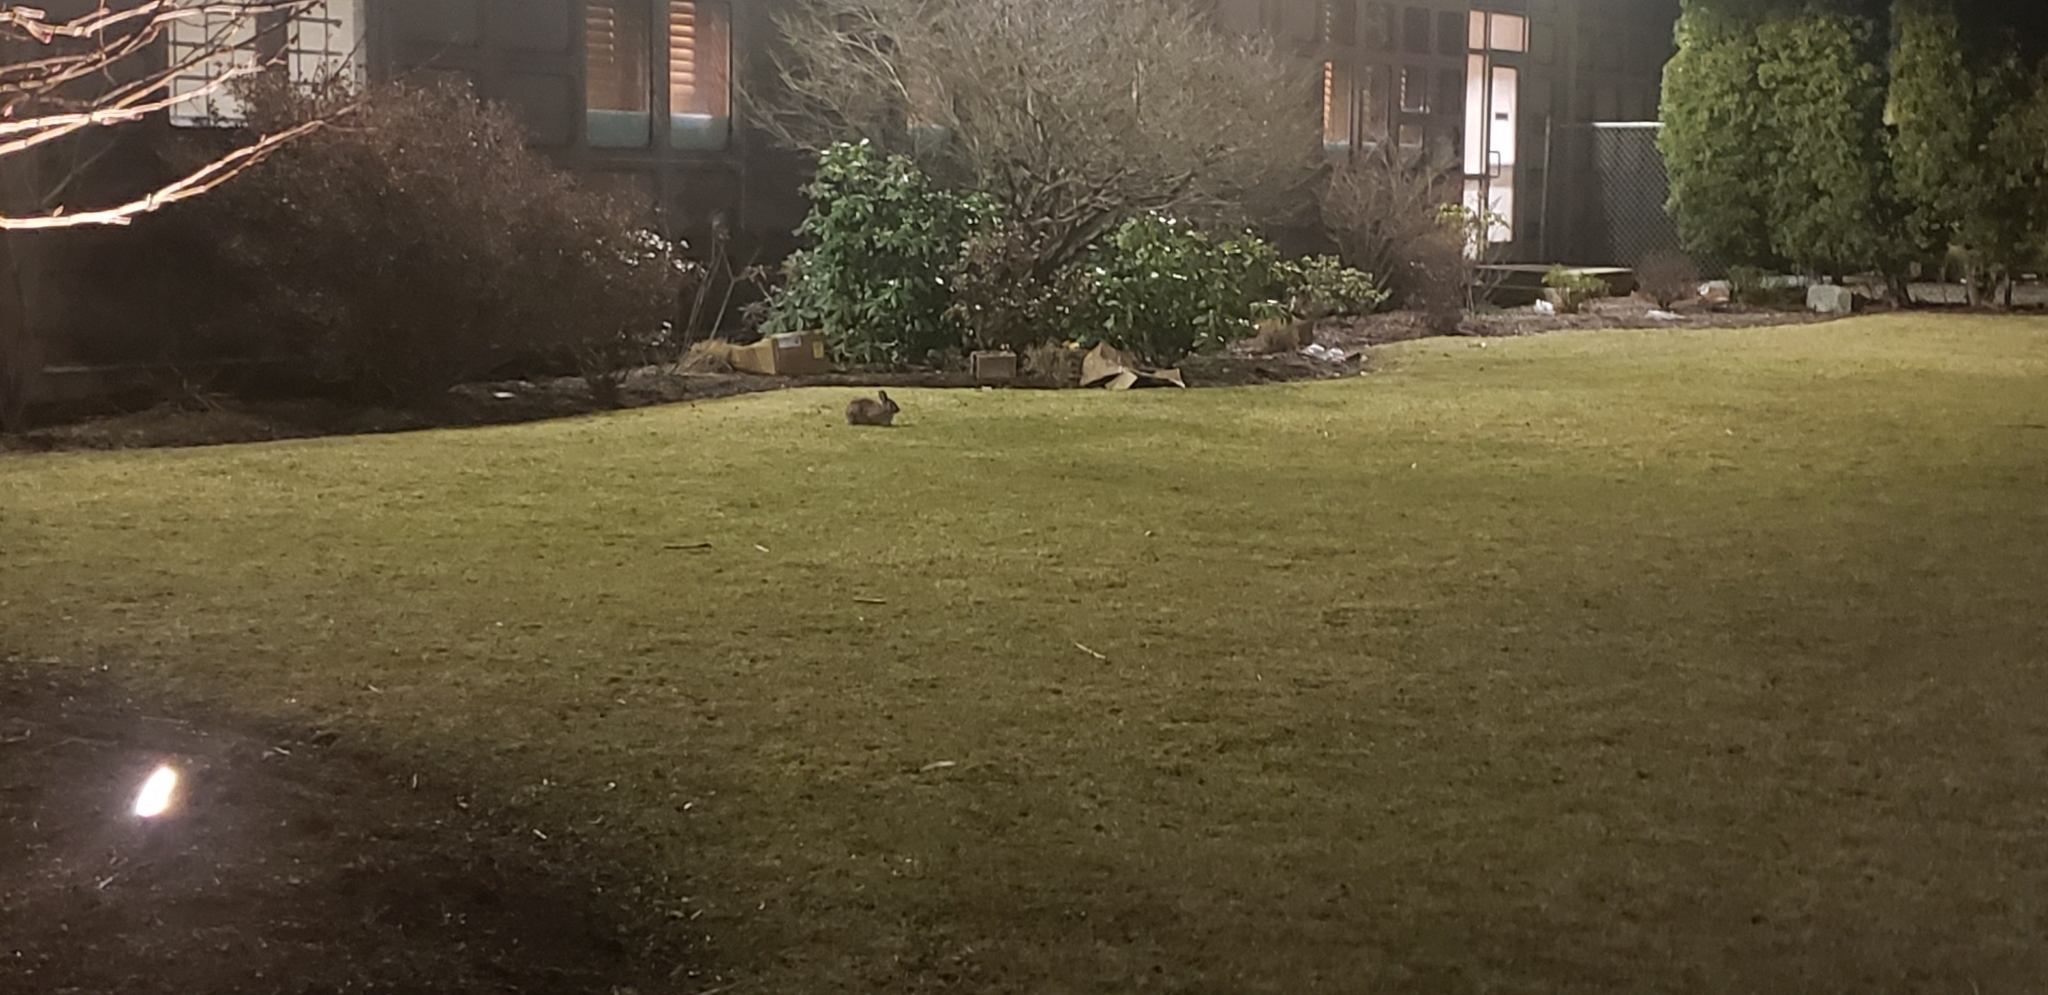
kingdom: Animalia
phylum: Chordata
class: Mammalia
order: Lagomorpha
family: Leporidae
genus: Sylvilagus
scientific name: Sylvilagus floridanus
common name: Eastern cottontail
